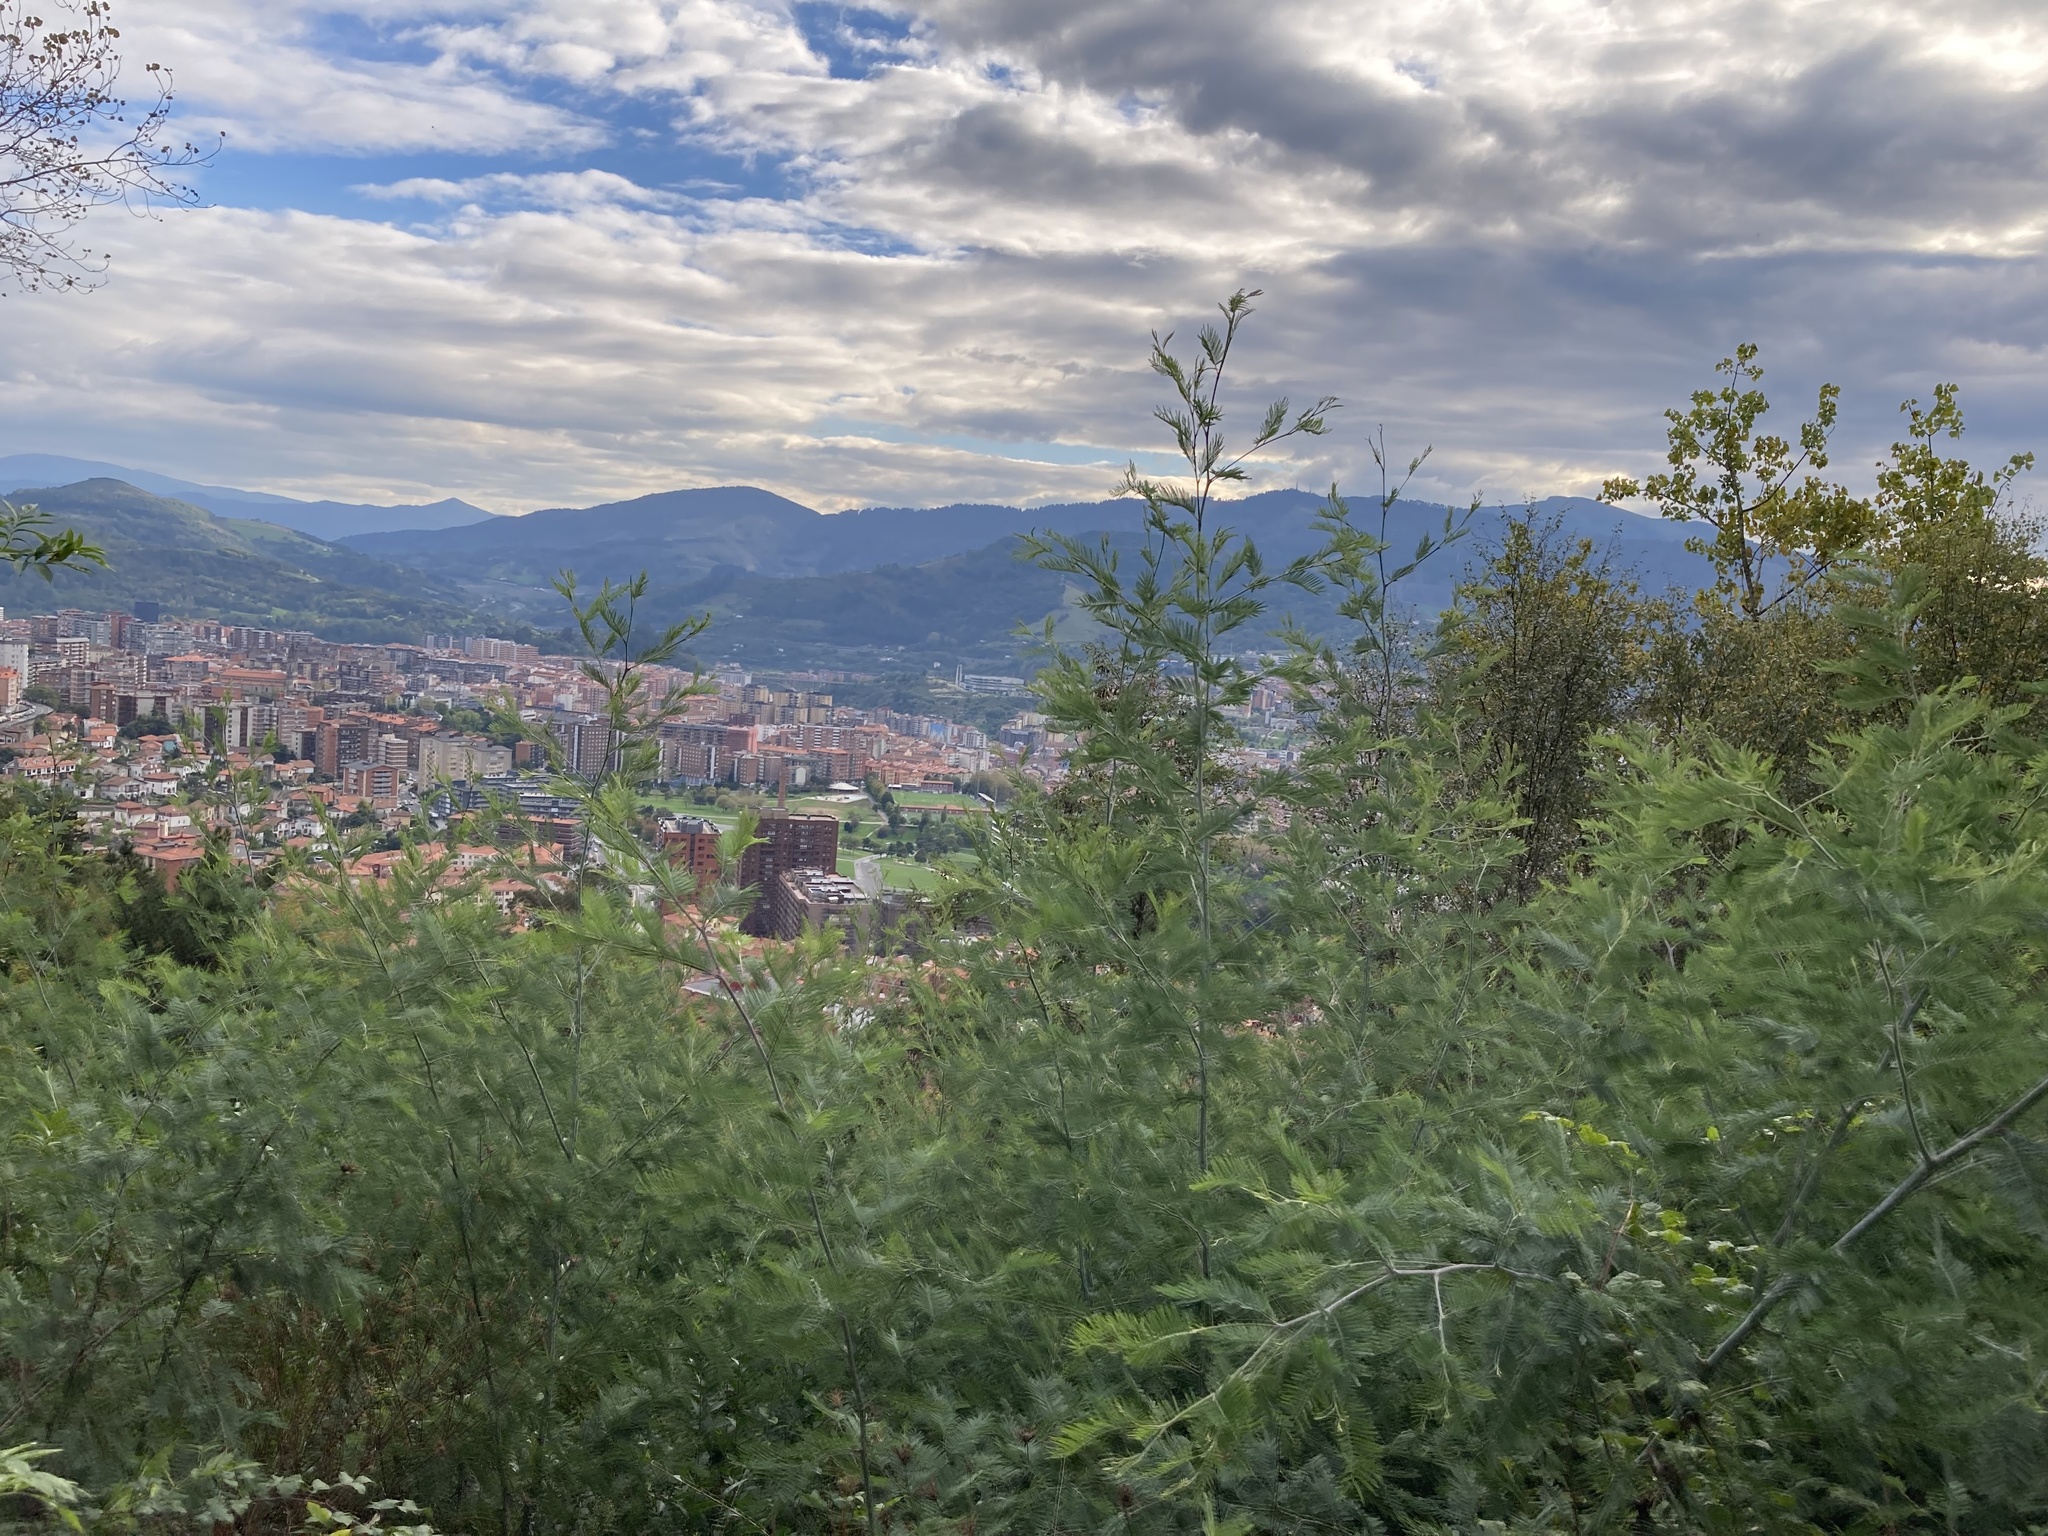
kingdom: Plantae
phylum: Tracheophyta
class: Magnoliopsida
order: Fabales
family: Fabaceae
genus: Acacia
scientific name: Acacia dealbata
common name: Silver wattle
